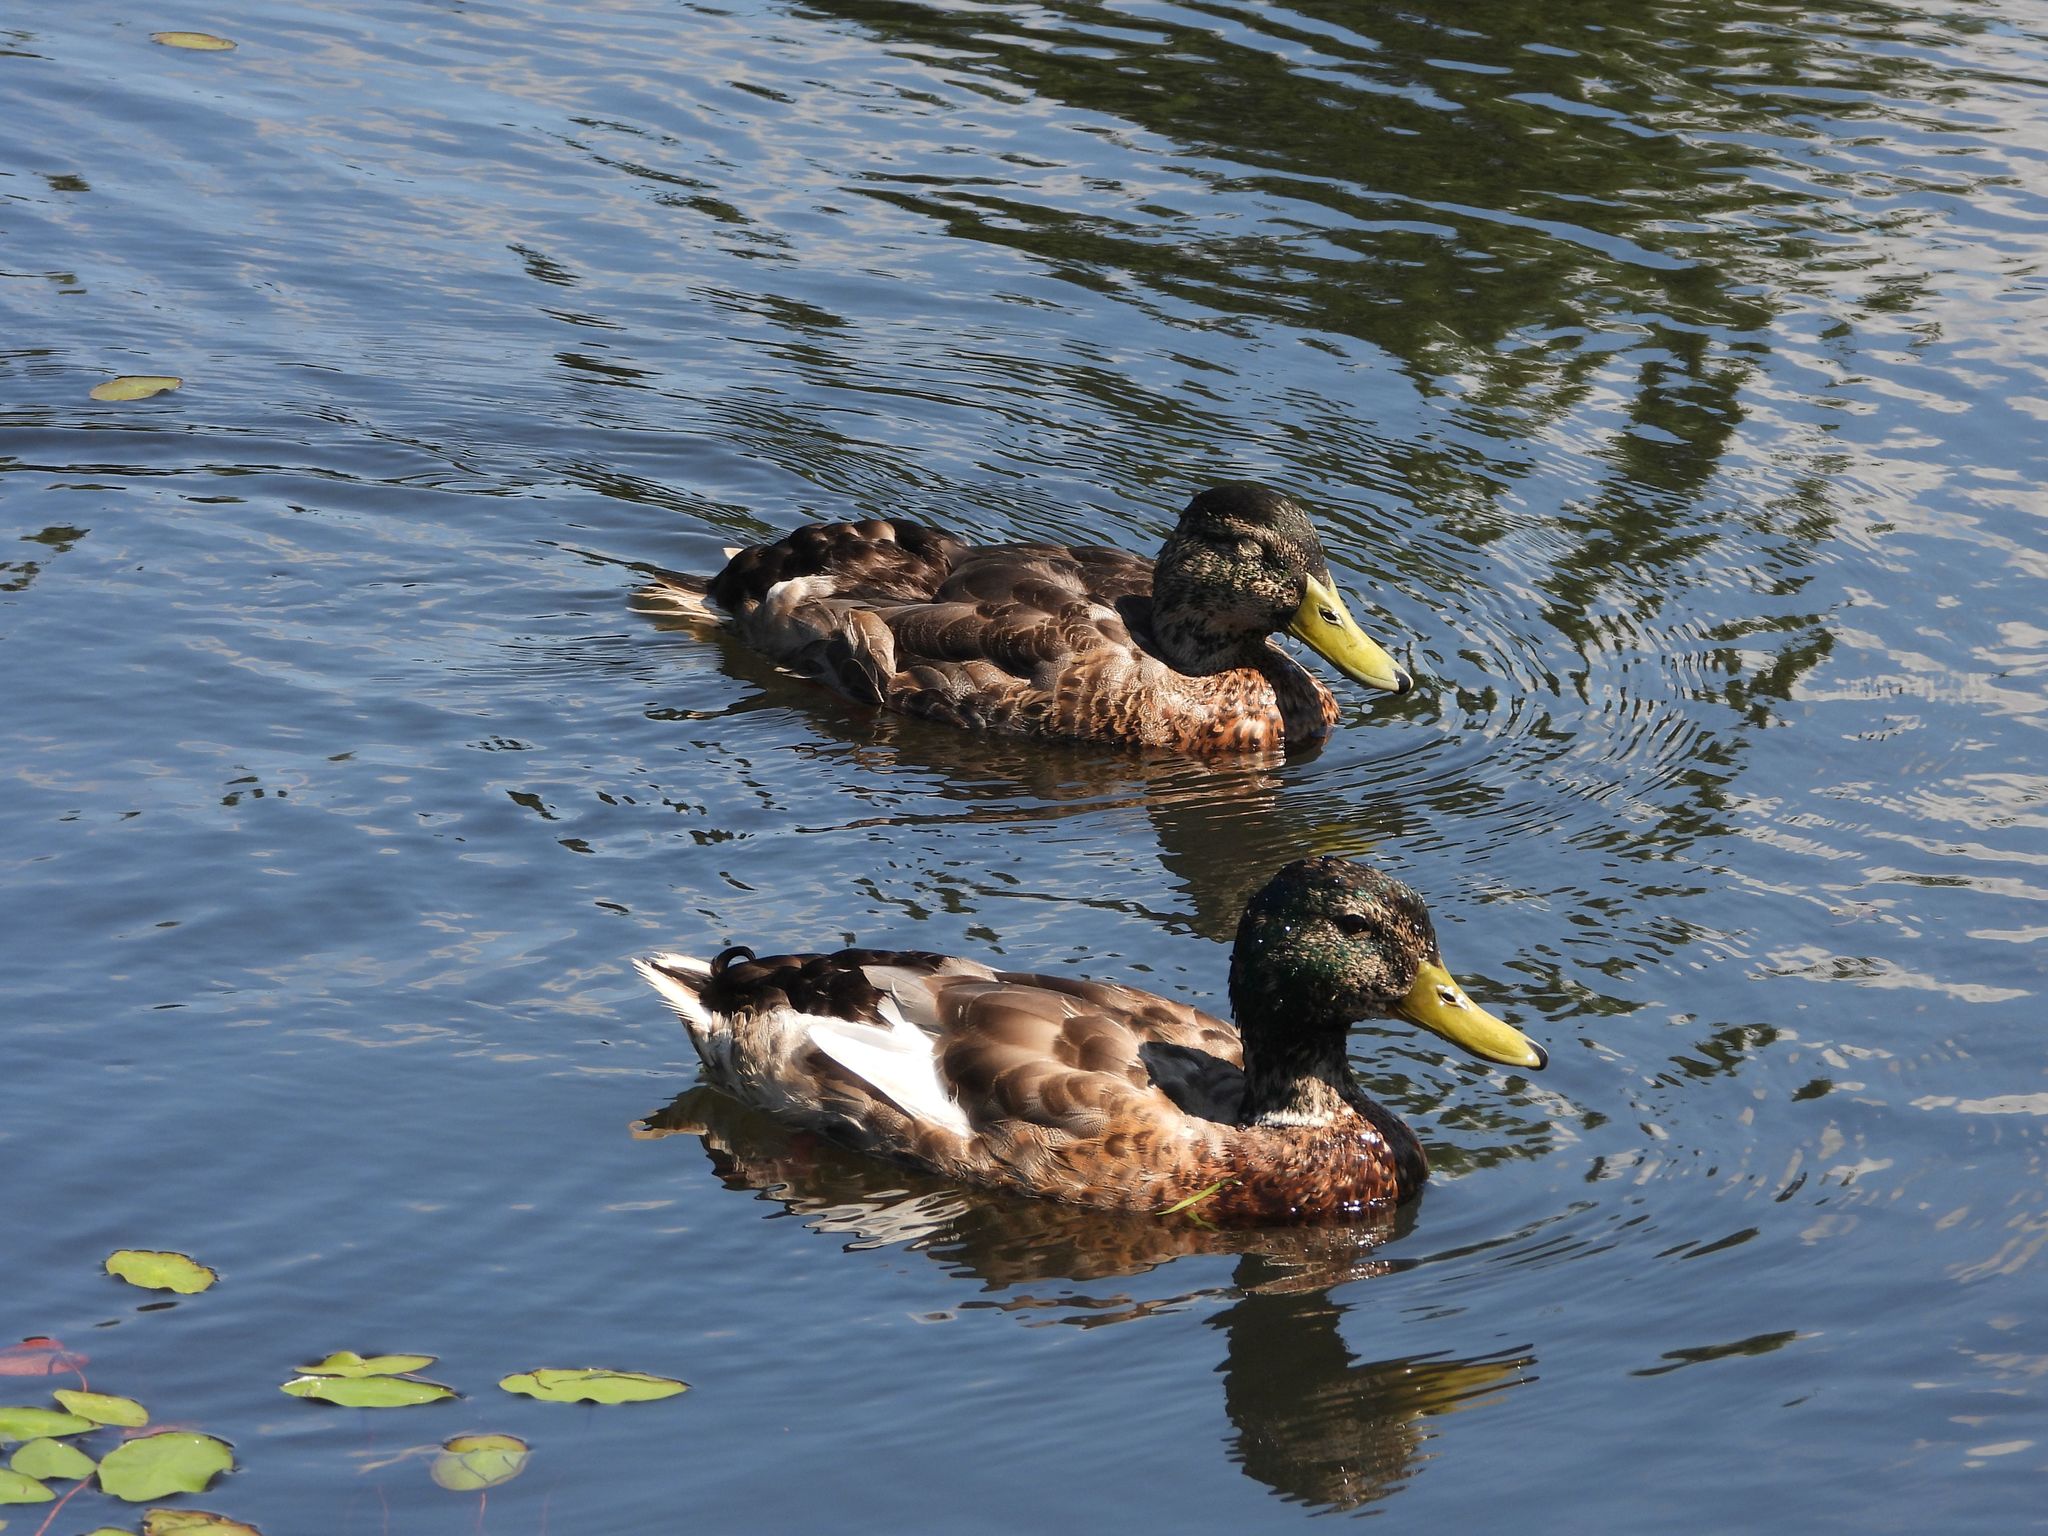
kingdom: Animalia
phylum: Chordata
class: Aves
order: Anseriformes
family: Anatidae
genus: Anas
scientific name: Anas platyrhynchos
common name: Mallard
